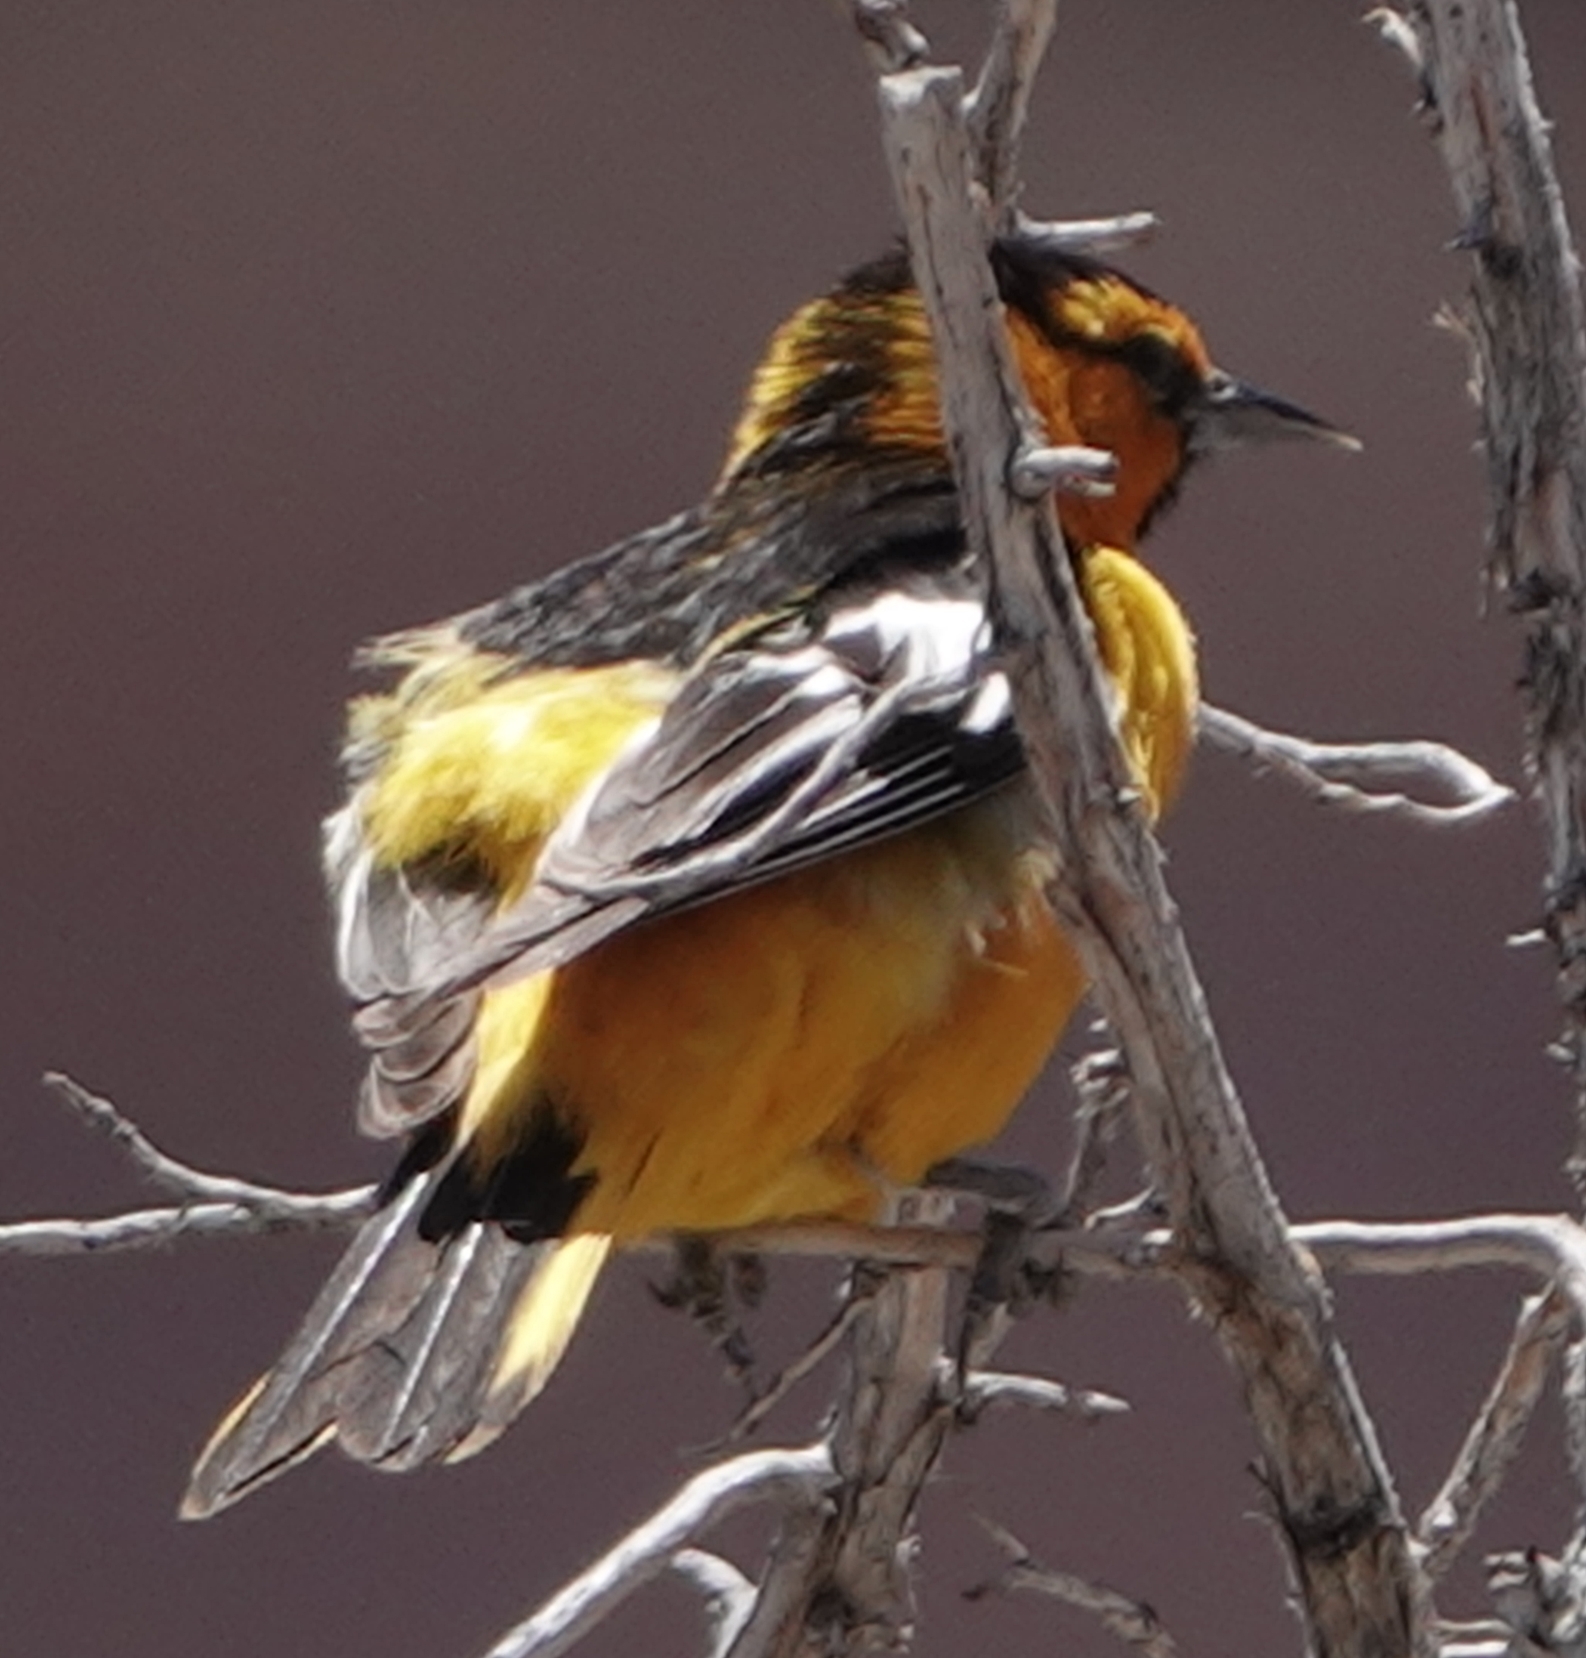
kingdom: Animalia
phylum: Chordata
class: Aves
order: Passeriformes
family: Icteridae
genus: Icterus
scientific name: Icterus bullockii
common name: Bullock's oriole
